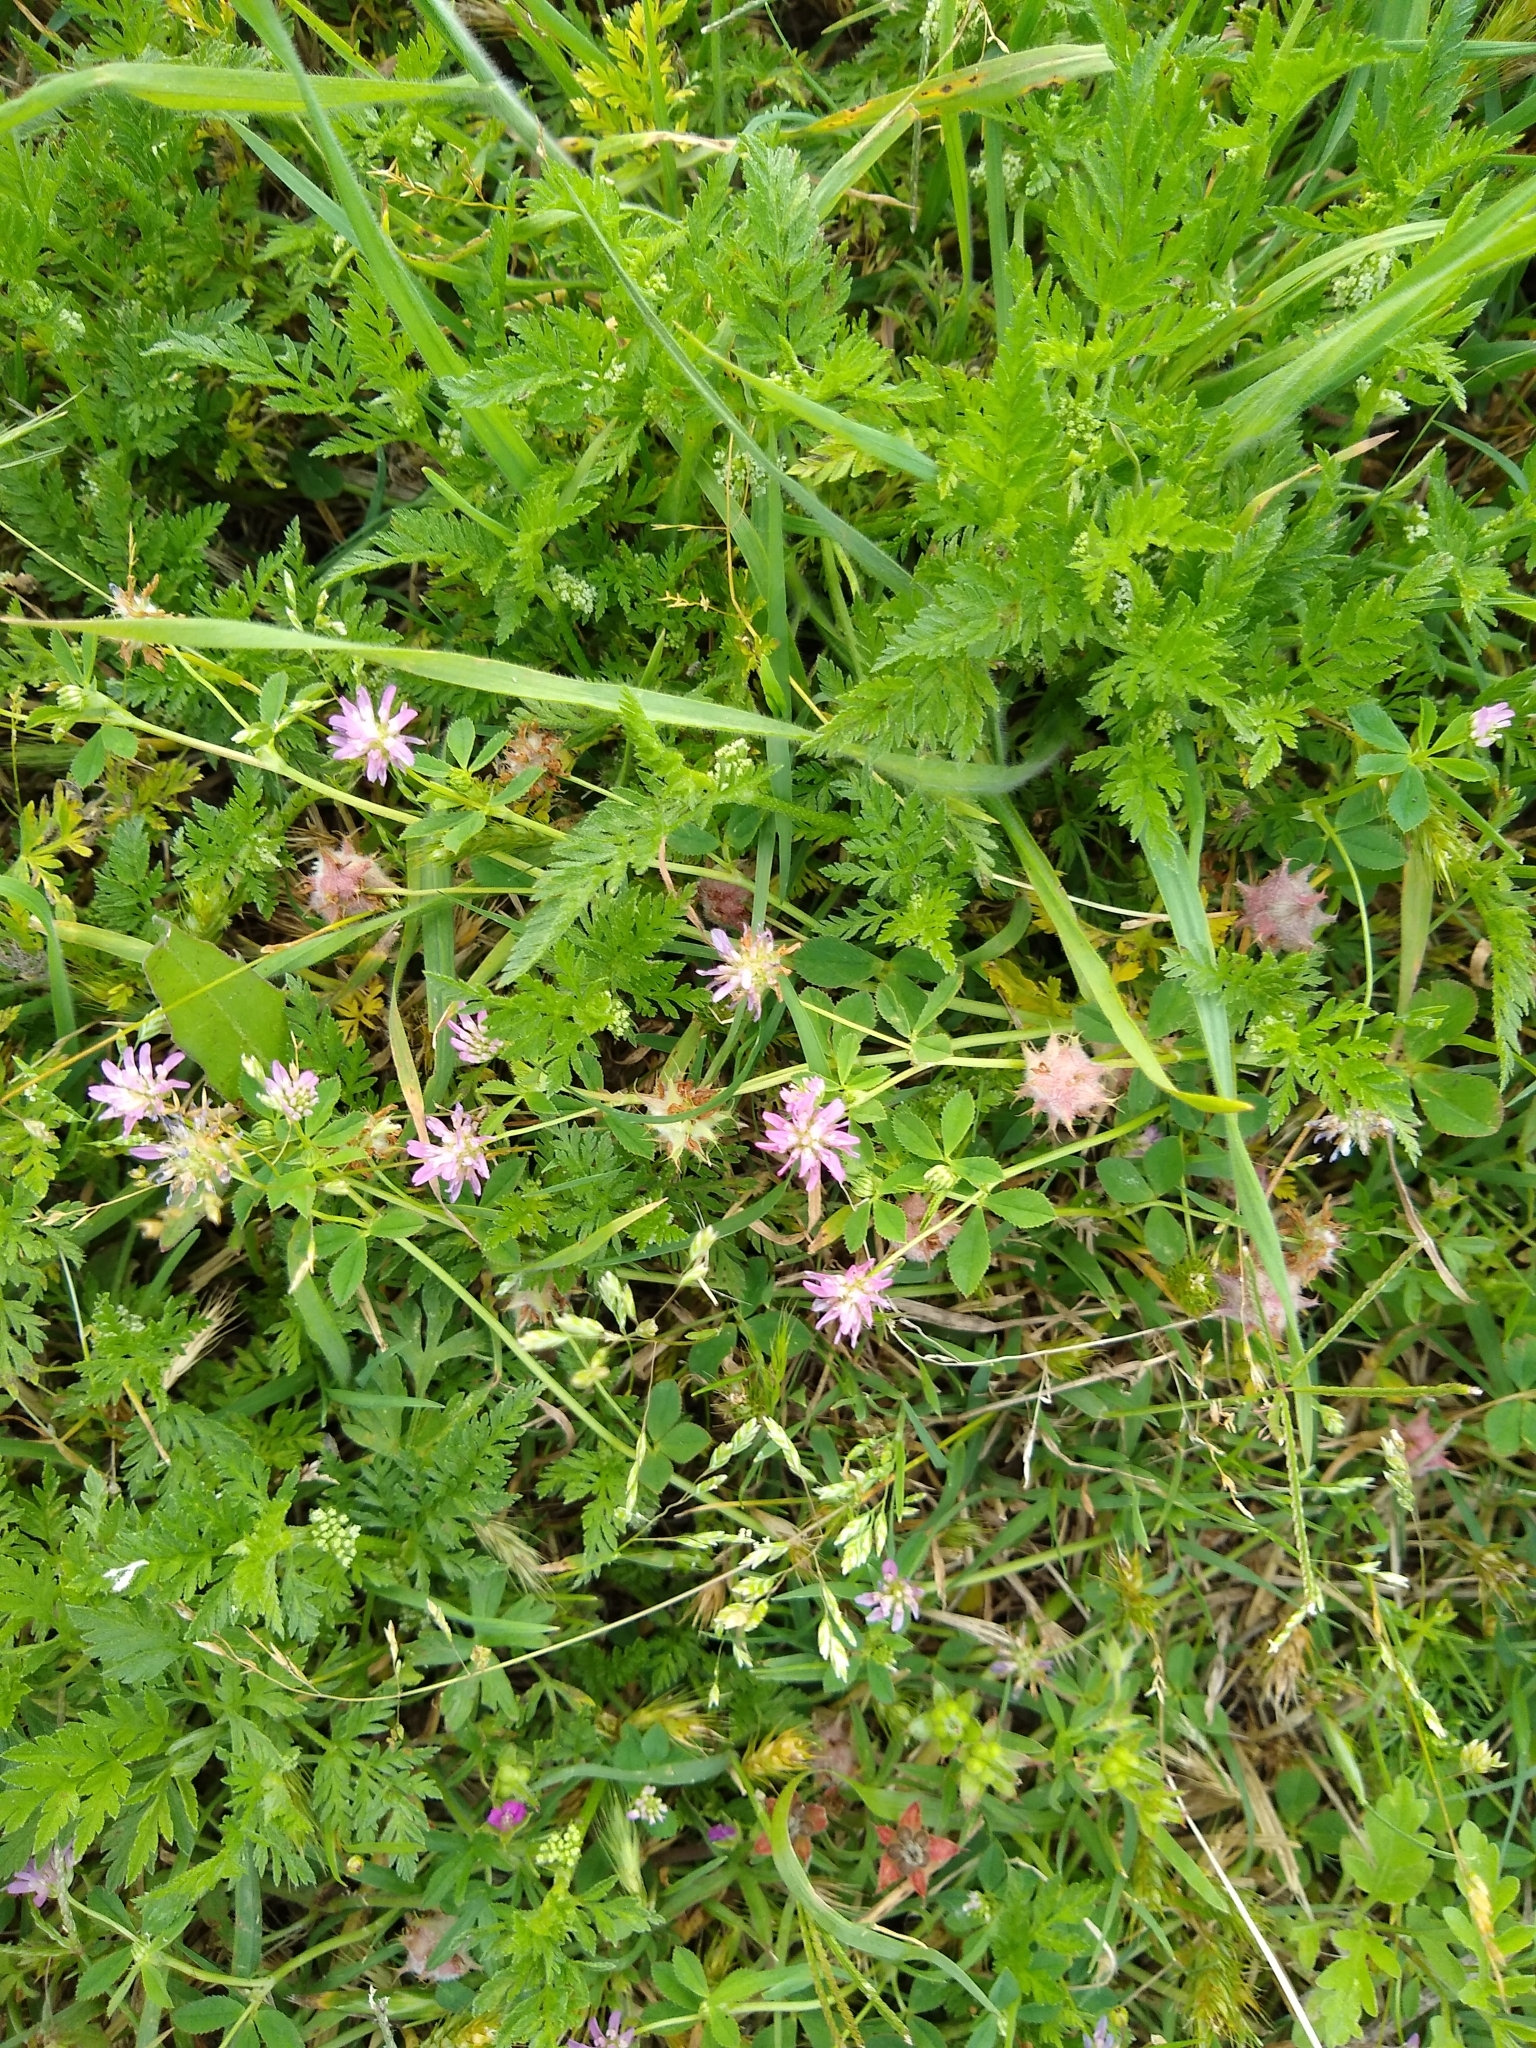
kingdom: Plantae
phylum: Tracheophyta
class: Magnoliopsida
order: Fabales
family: Fabaceae
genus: Trifolium
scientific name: Trifolium resupinatum
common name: Reversed clover
